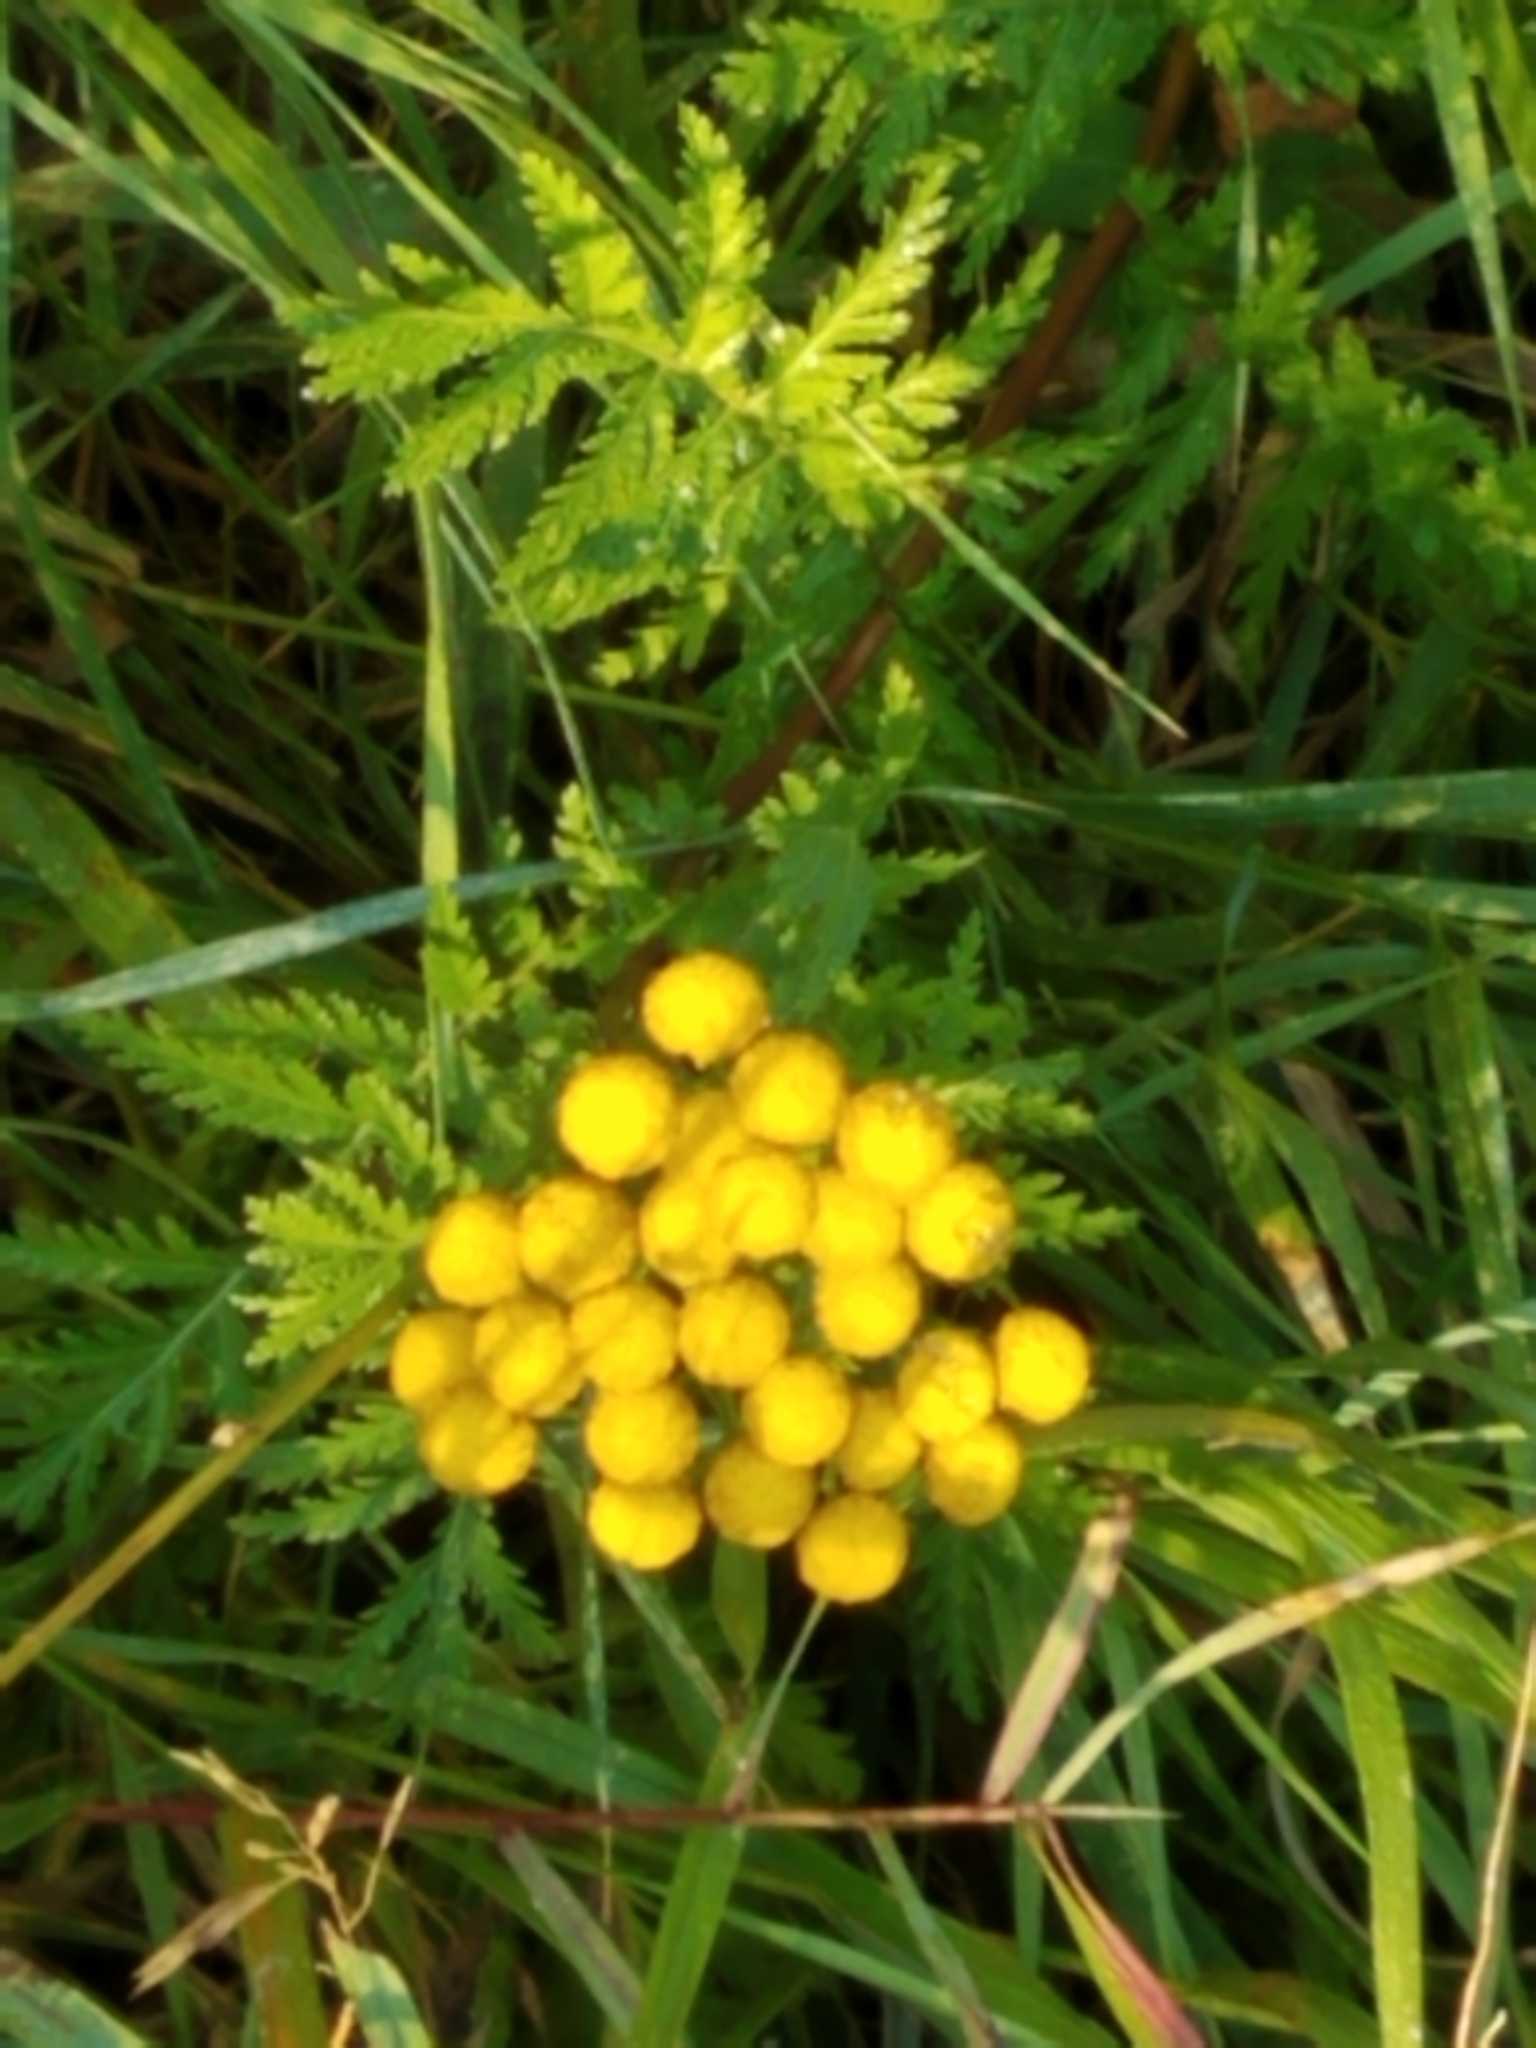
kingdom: Plantae
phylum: Tracheophyta
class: Magnoliopsida
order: Asterales
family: Asteraceae
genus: Tanacetum
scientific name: Tanacetum vulgare
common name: Common tansy
